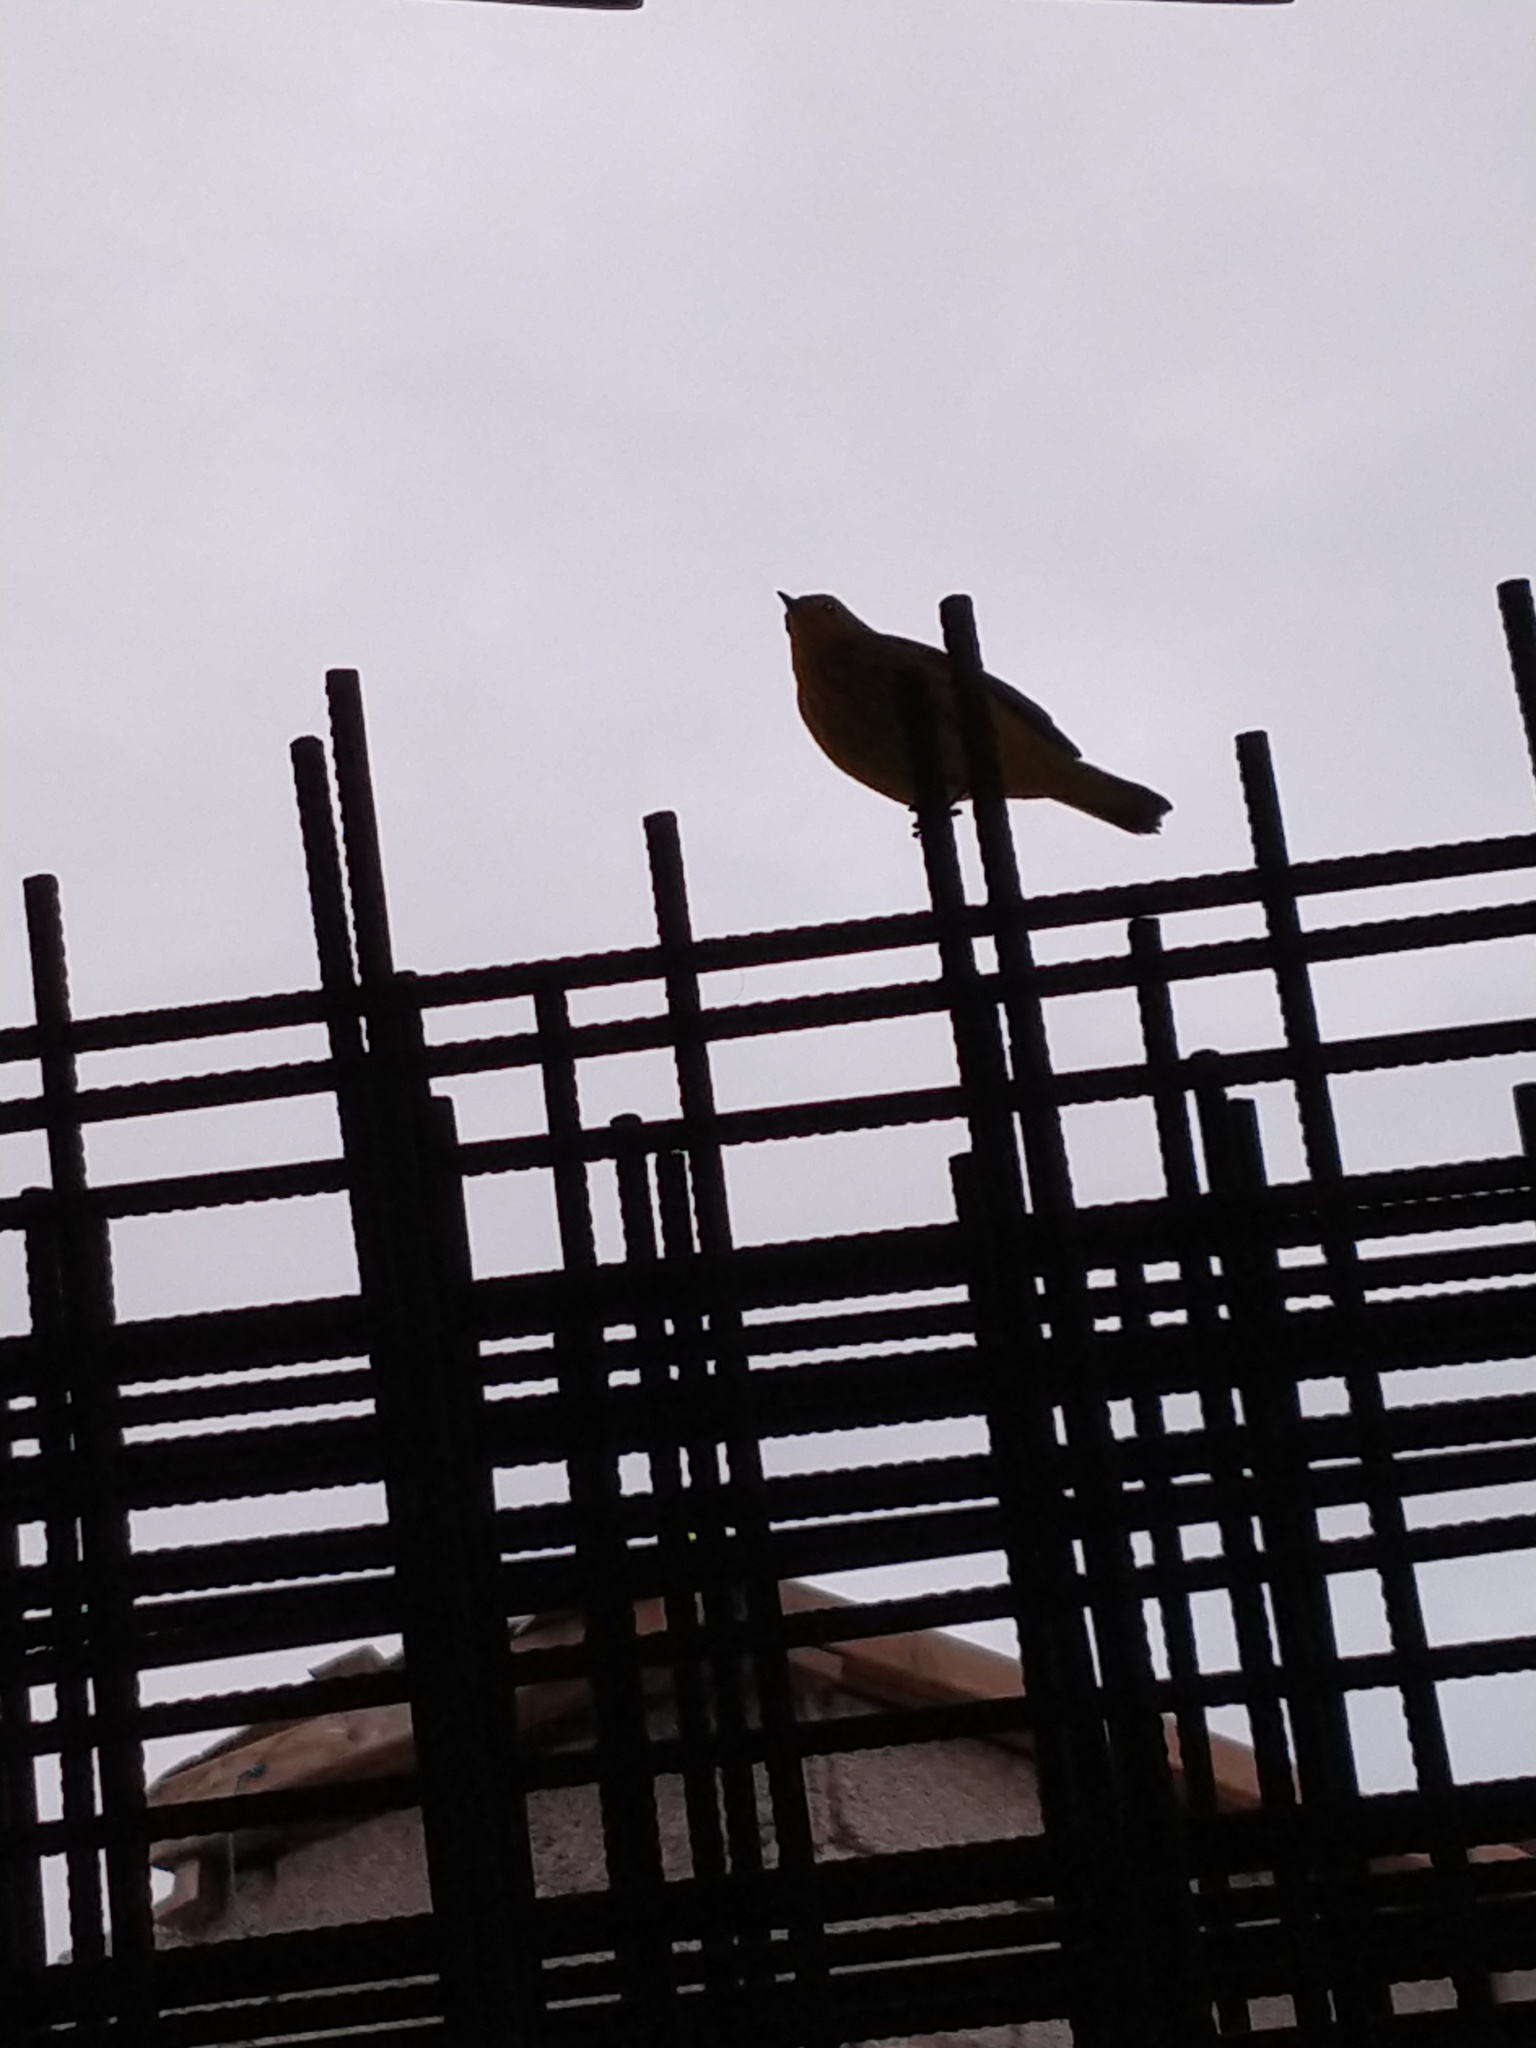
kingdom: Animalia
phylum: Chordata
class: Aves
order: Passeriformes
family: Parulidae
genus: Setophaga
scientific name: Setophaga petechia
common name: Yellow warbler
